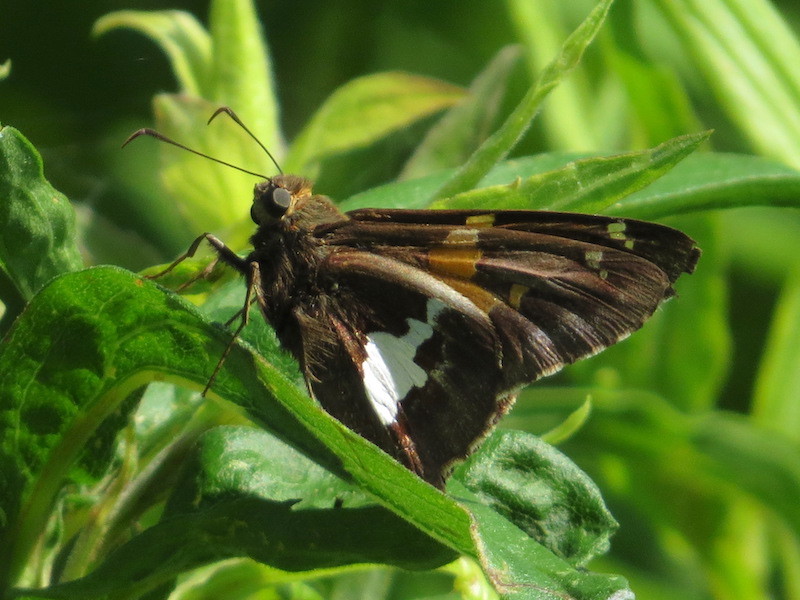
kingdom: Animalia
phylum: Arthropoda
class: Insecta
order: Lepidoptera
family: Hesperiidae
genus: Epargyreus
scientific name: Epargyreus clarus
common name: Silver-spotted skipper
